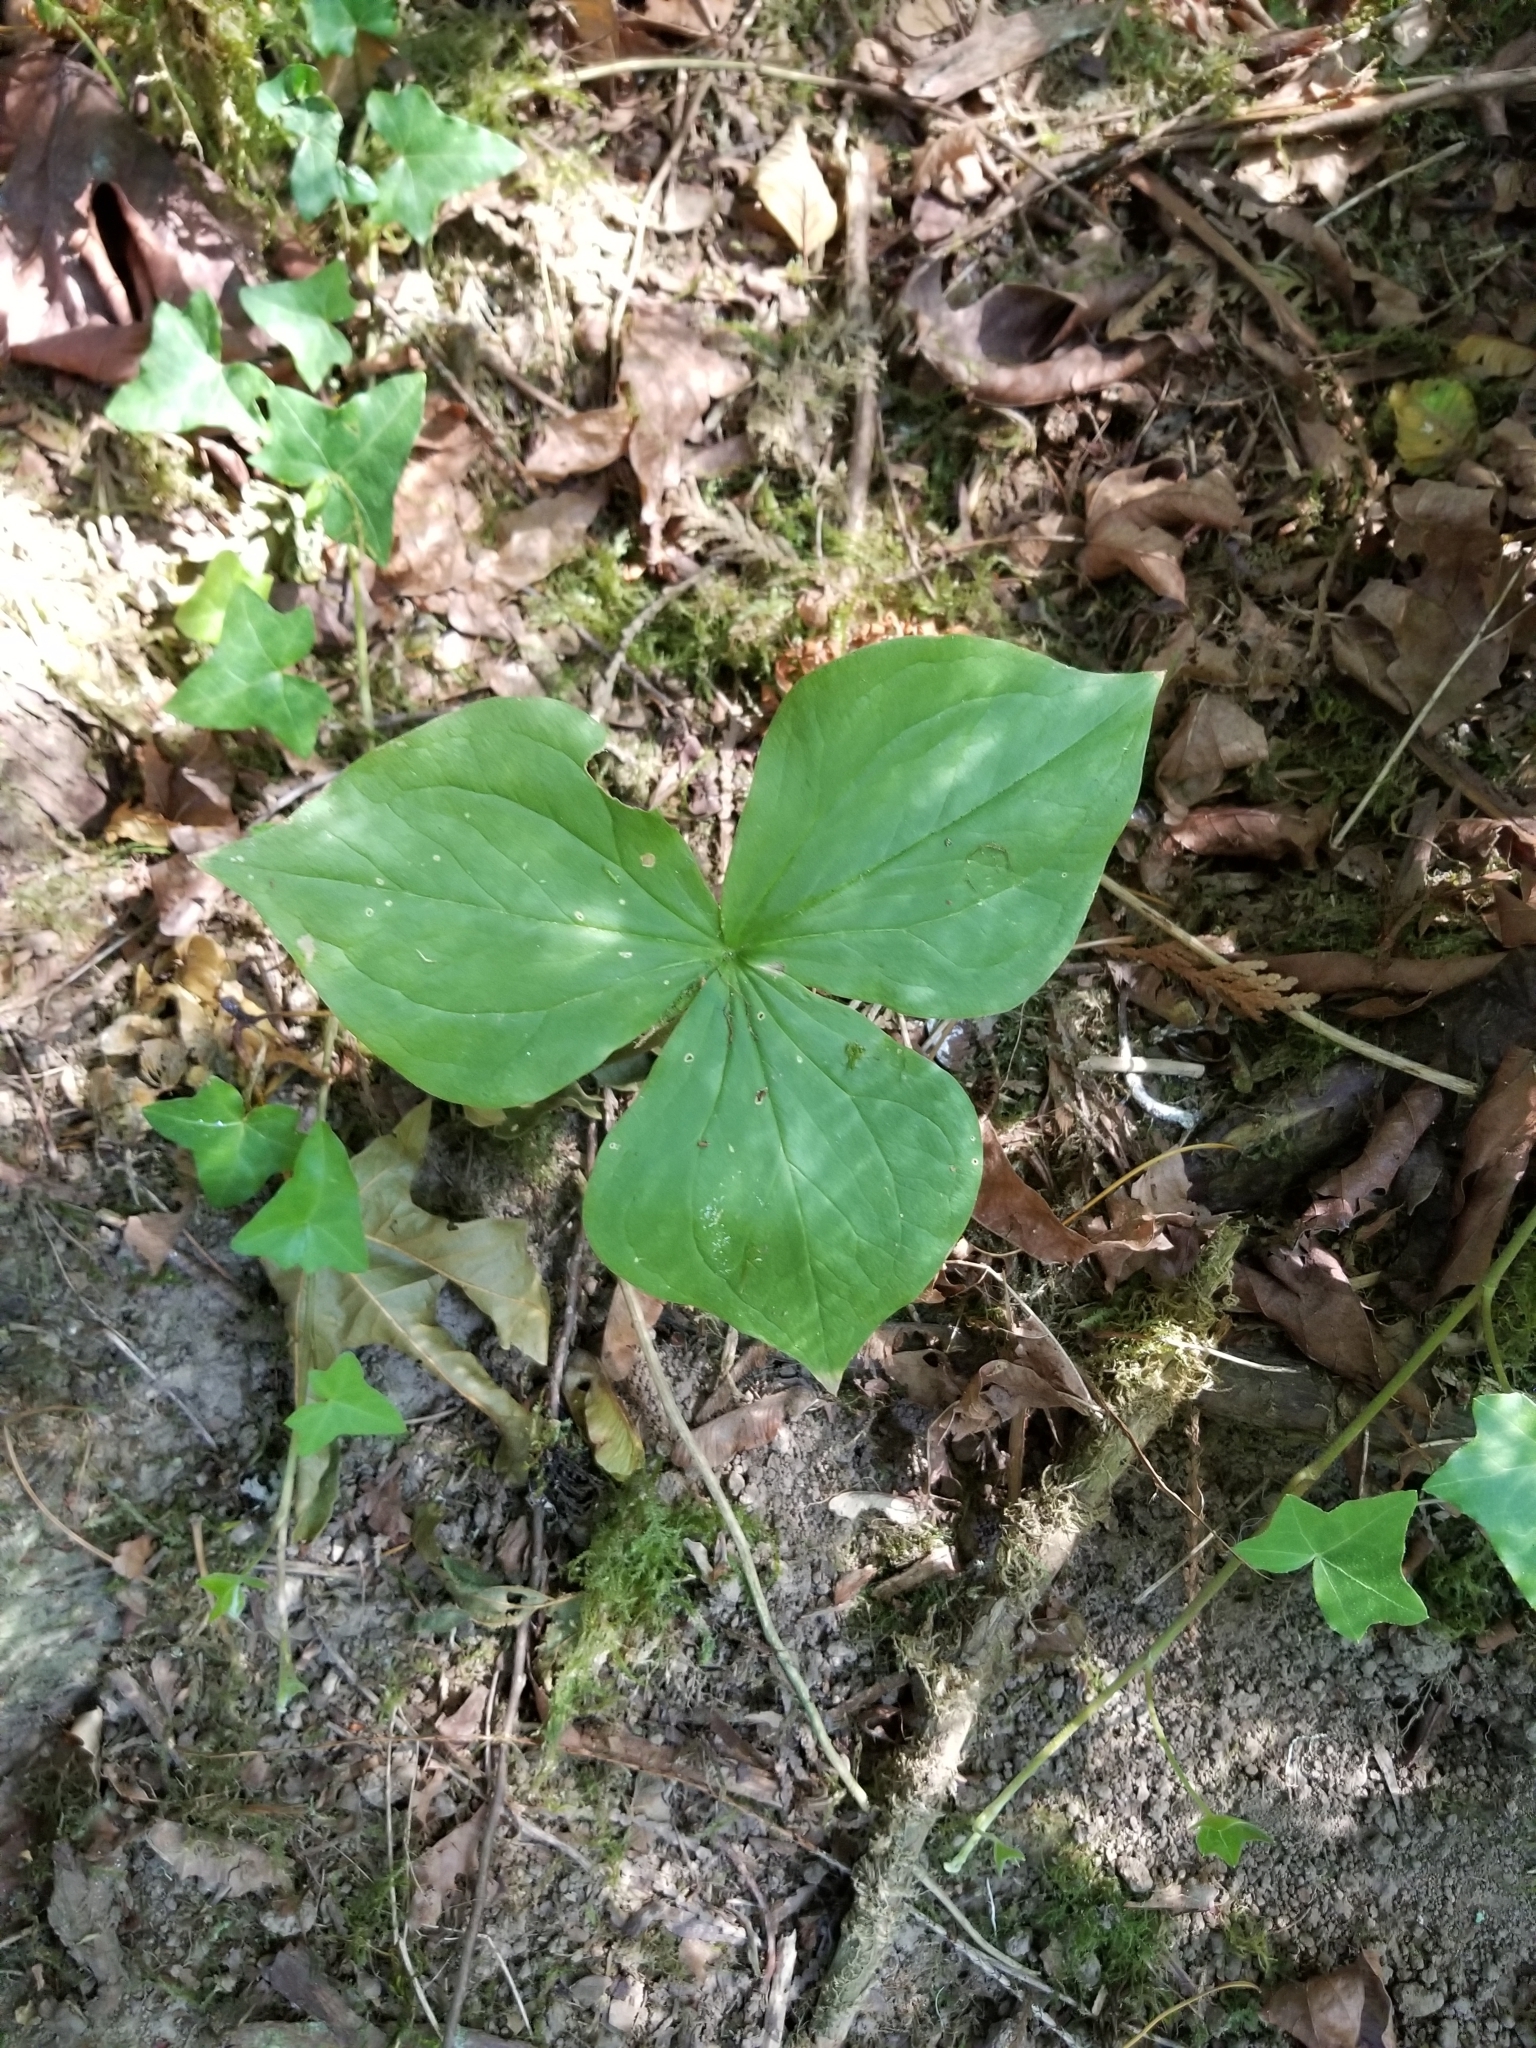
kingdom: Plantae
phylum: Tracheophyta
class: Liliopsida
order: Liliales
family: Melanthiaceae
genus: Trillium
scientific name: Trillium ovatum
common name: Pacific trillium
